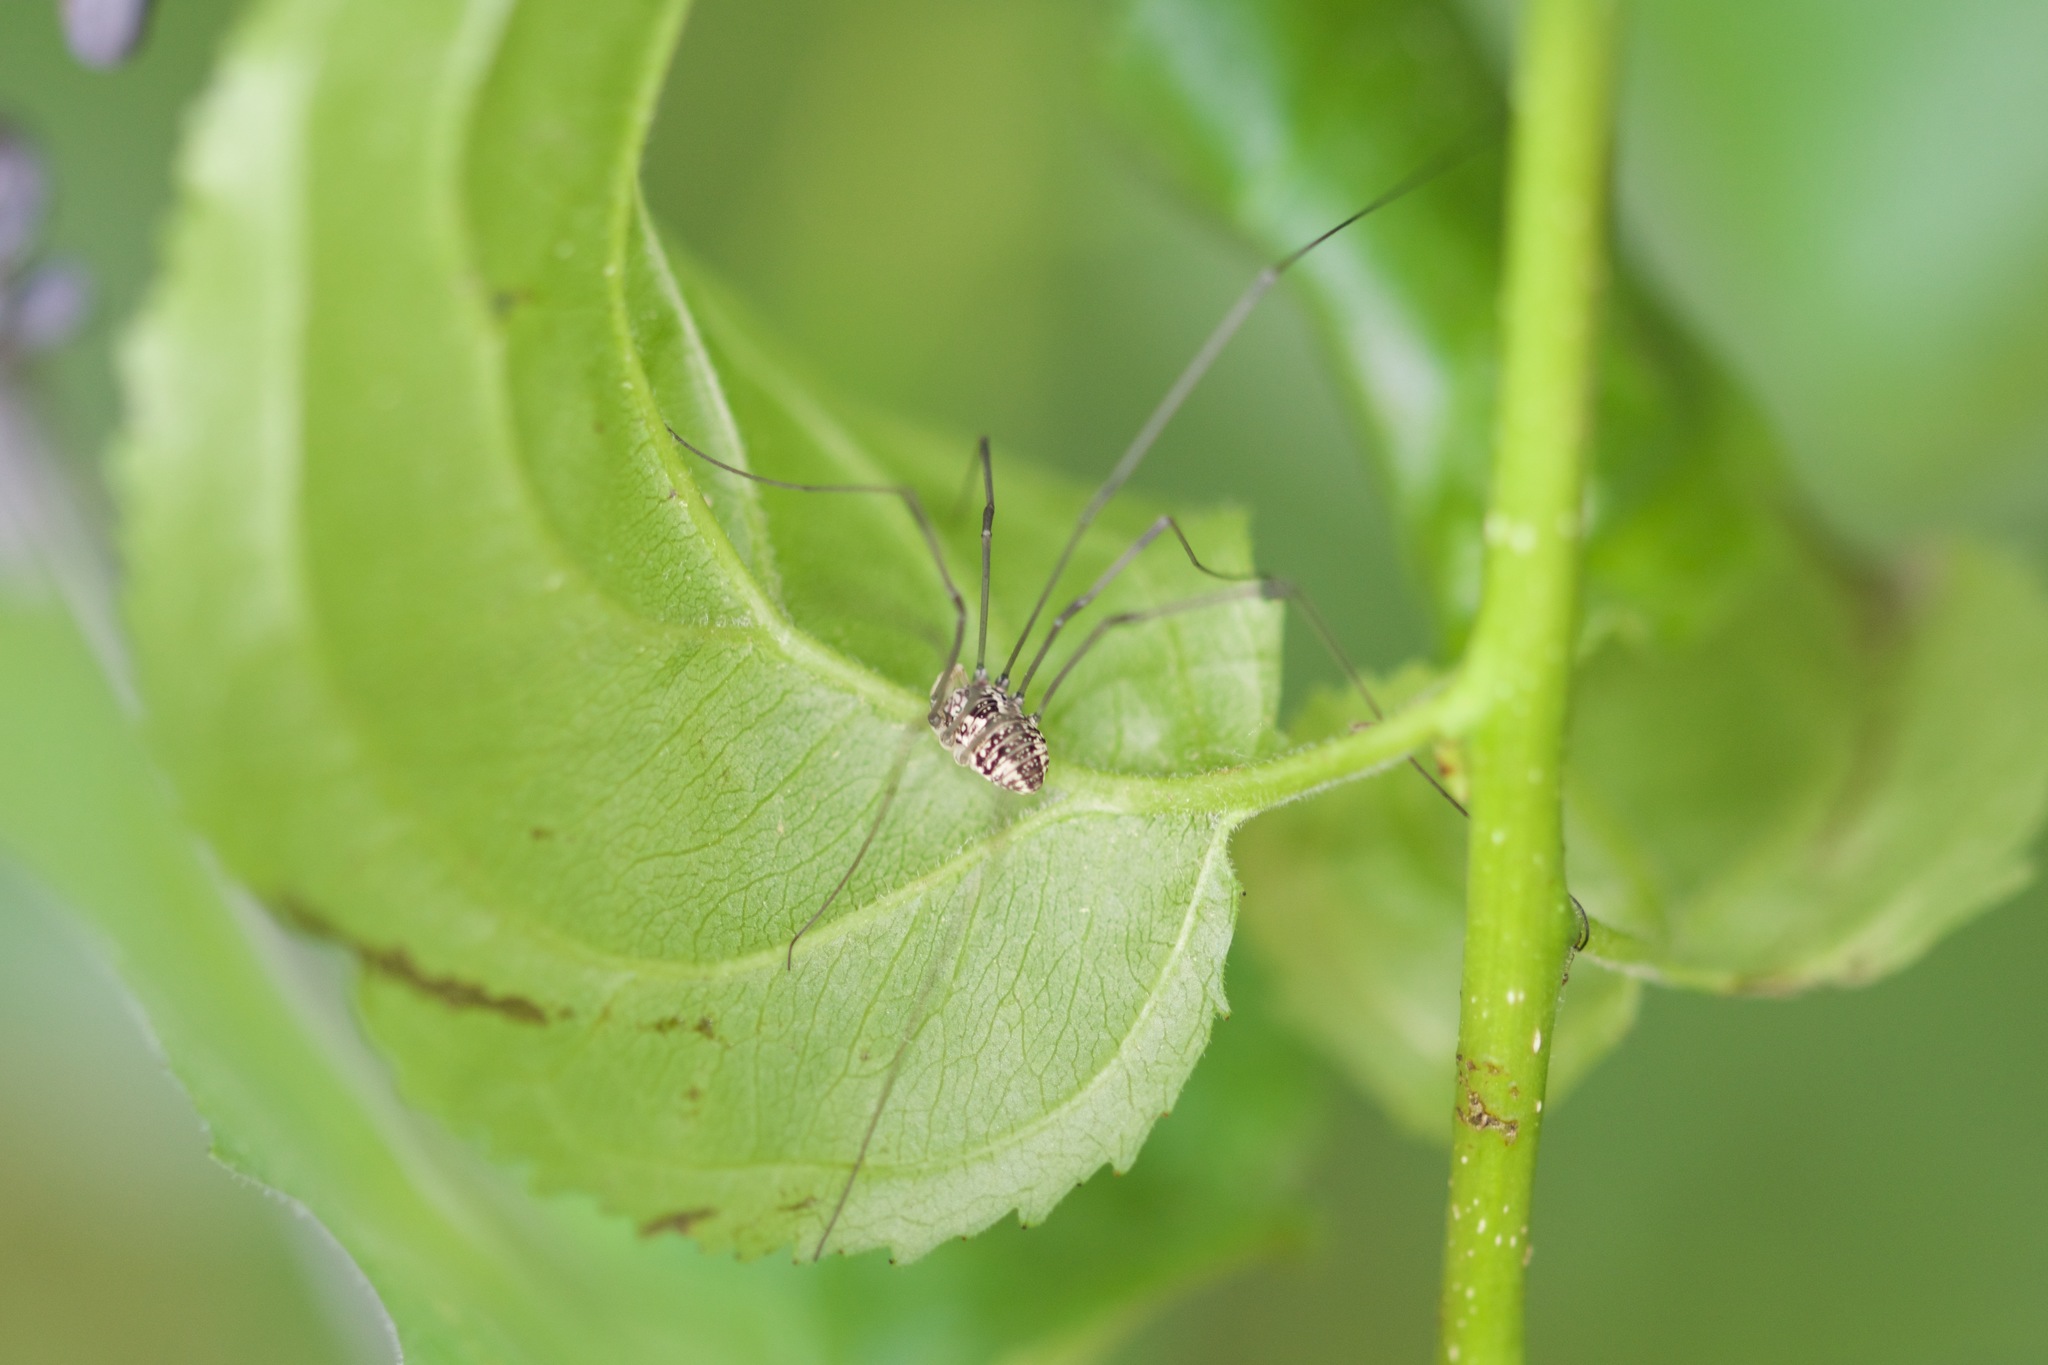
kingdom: Animalia
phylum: Arthropoda
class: Arachnida
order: Opiliones
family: Sclerosomatidae
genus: Leiobunum
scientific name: Leiobunum vittatum
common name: Eastern harvestman
